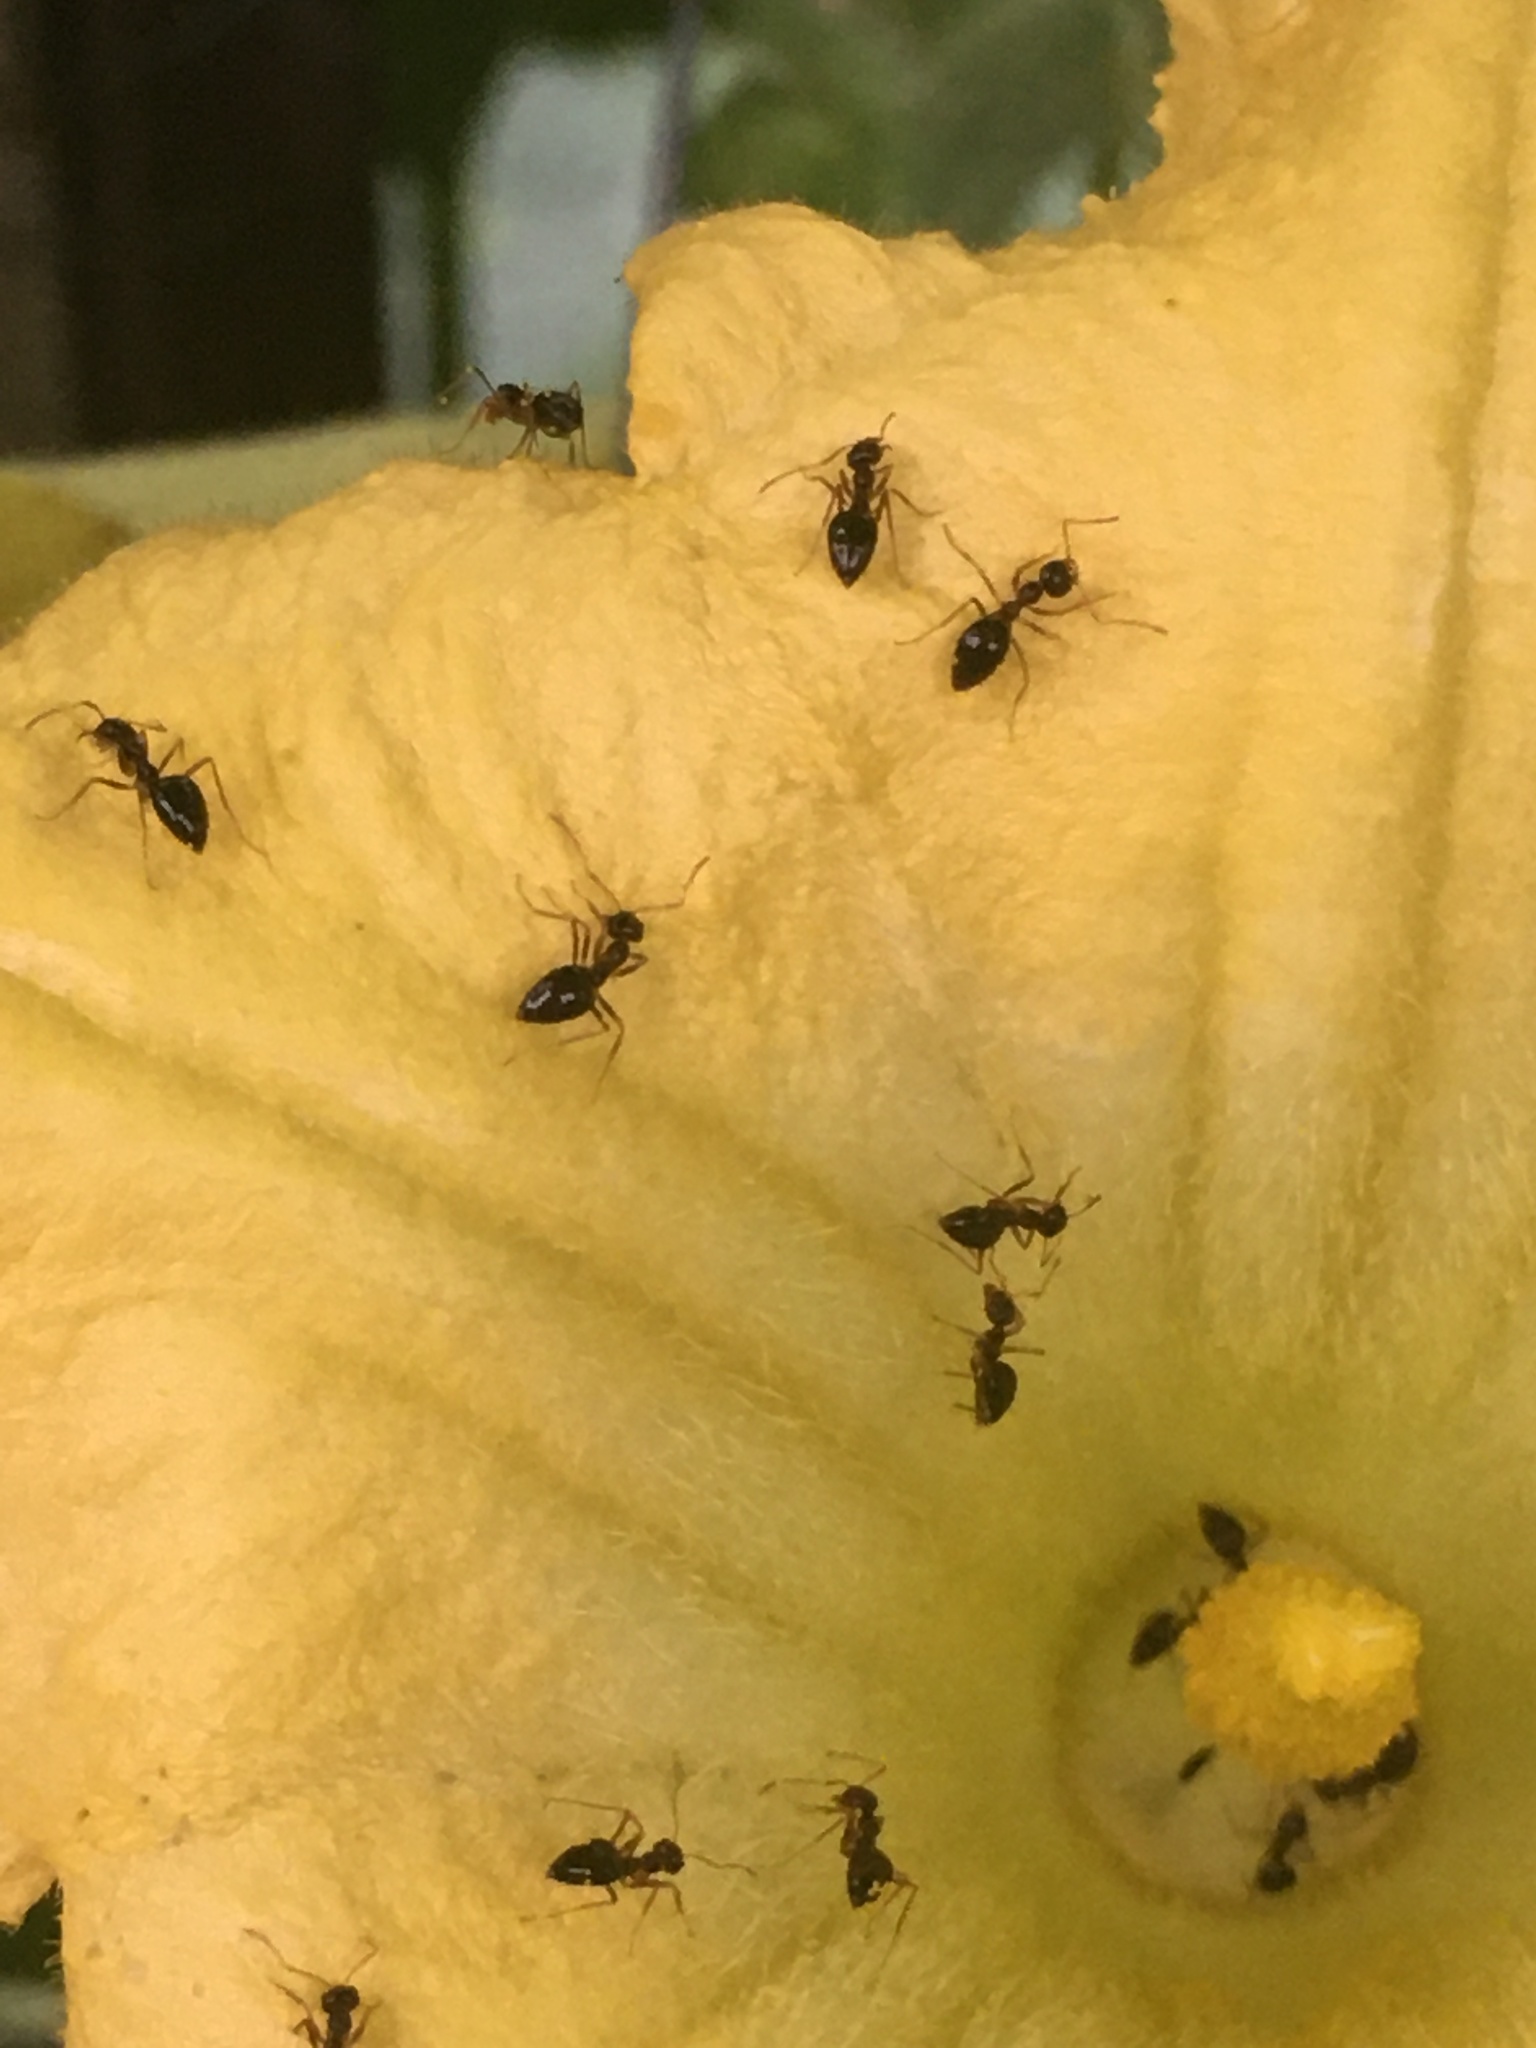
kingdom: Animalia
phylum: Arthropoda
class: Insecta
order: Hymenoptera
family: Formicidae
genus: Prenolepis
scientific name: Prenolepis imparis
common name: Small honey ant
